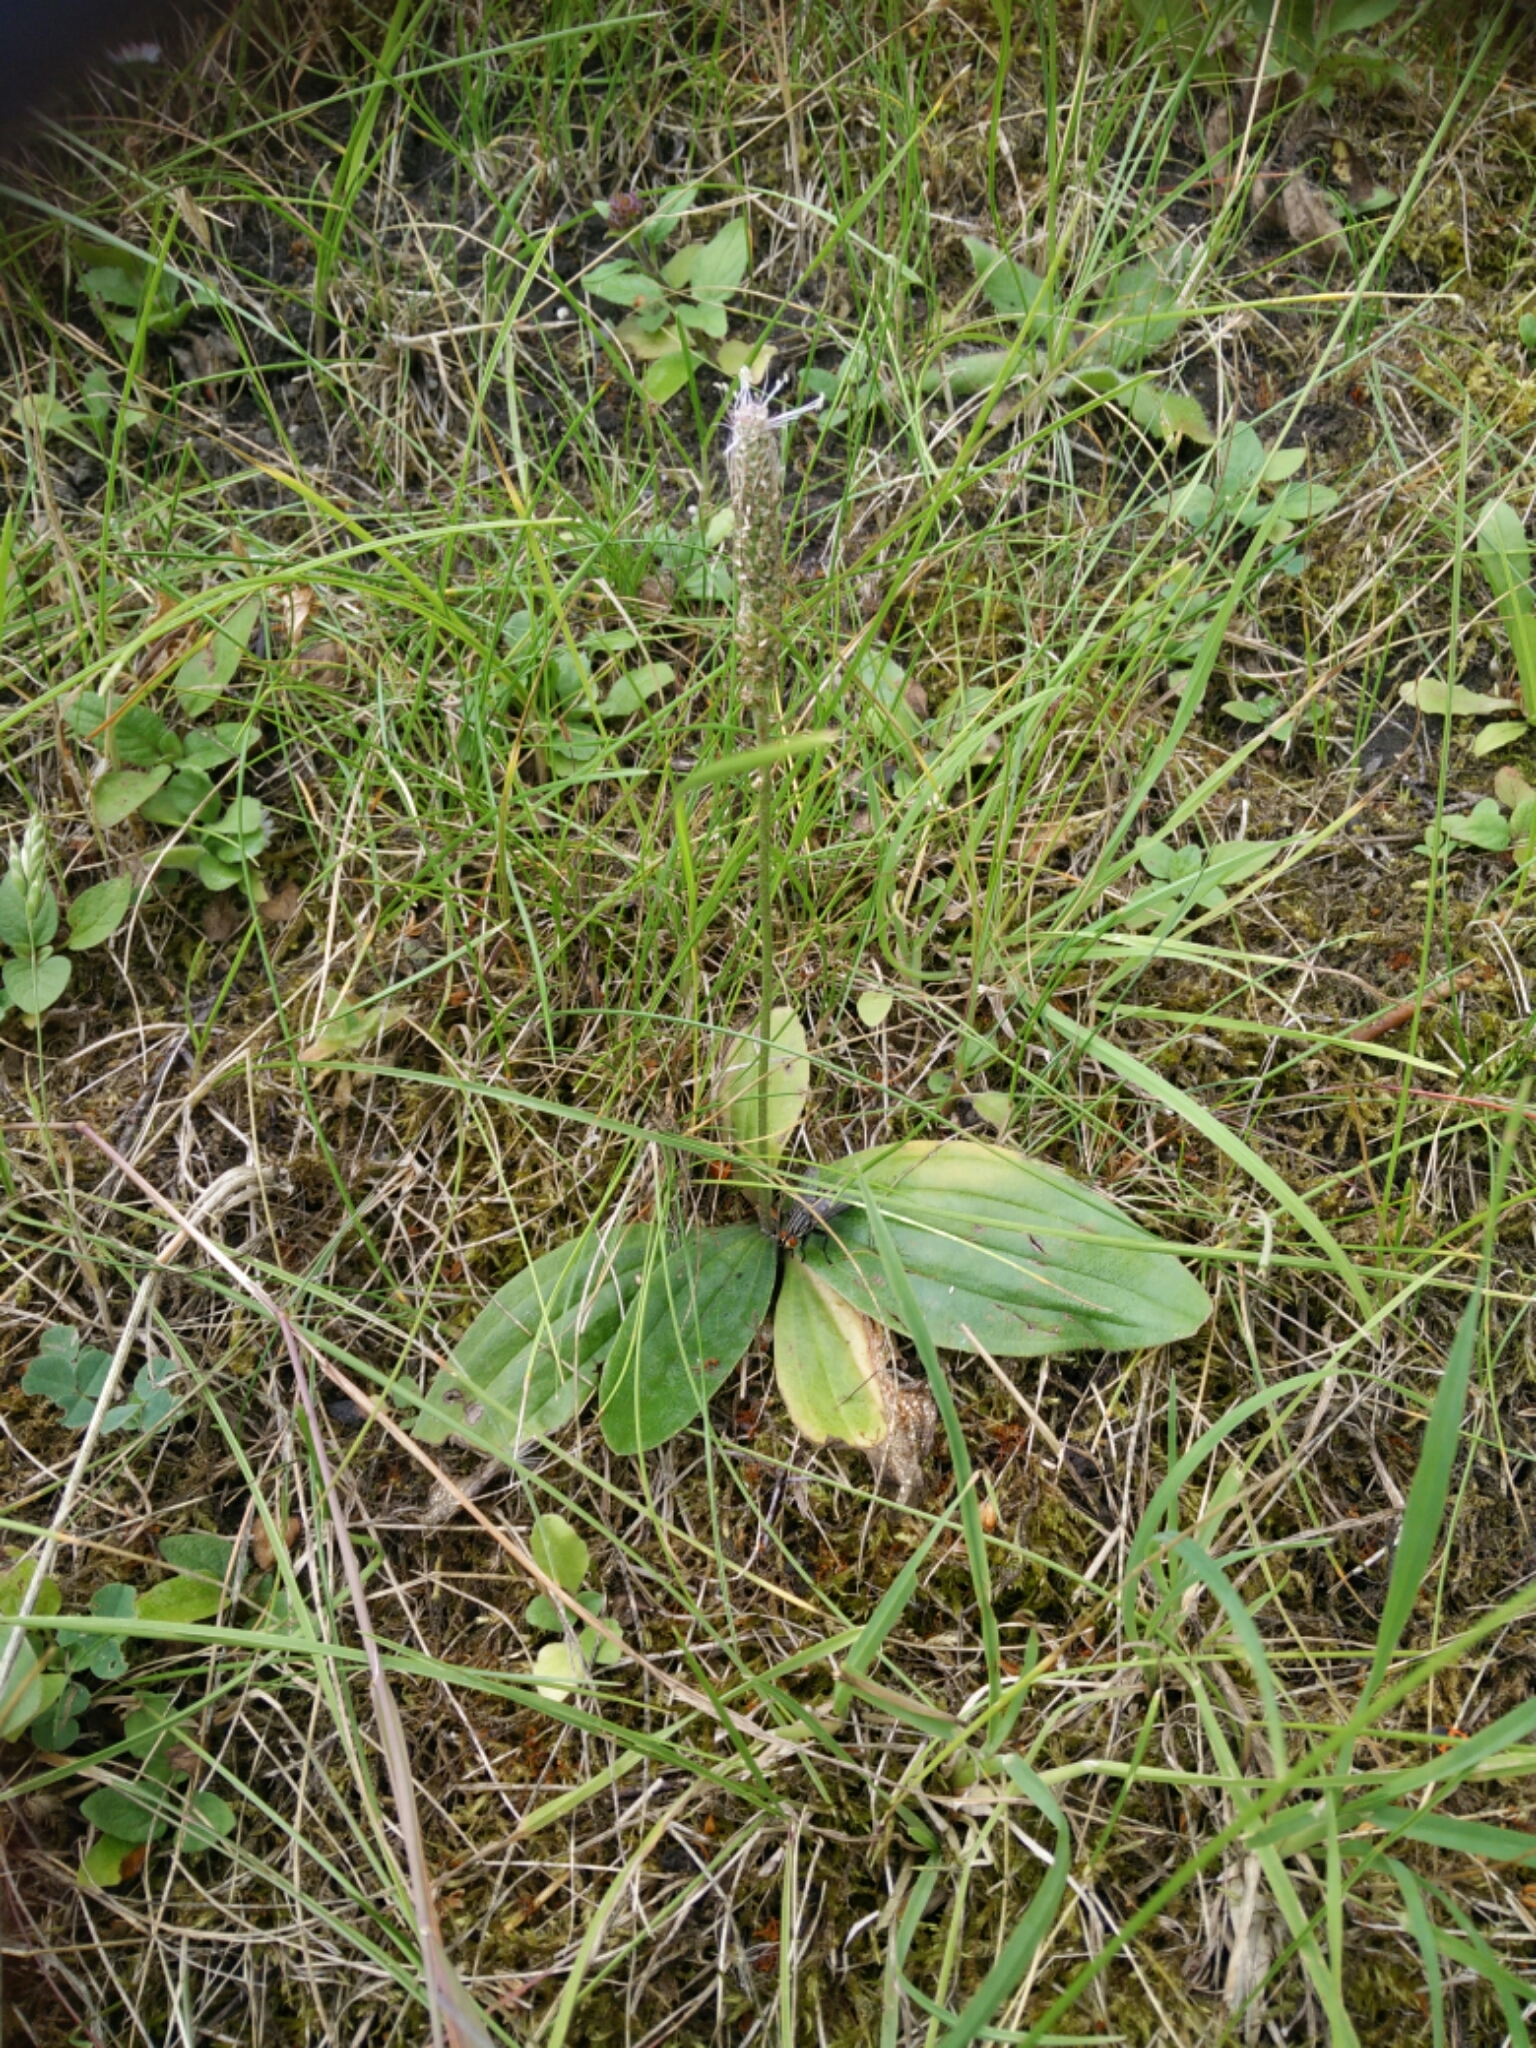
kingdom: Plantae
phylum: Tracheophyta
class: Magnoliopsida
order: Lamiales
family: Plantaginaceae
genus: Plantago
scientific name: Plantago media
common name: Hoary plantain
